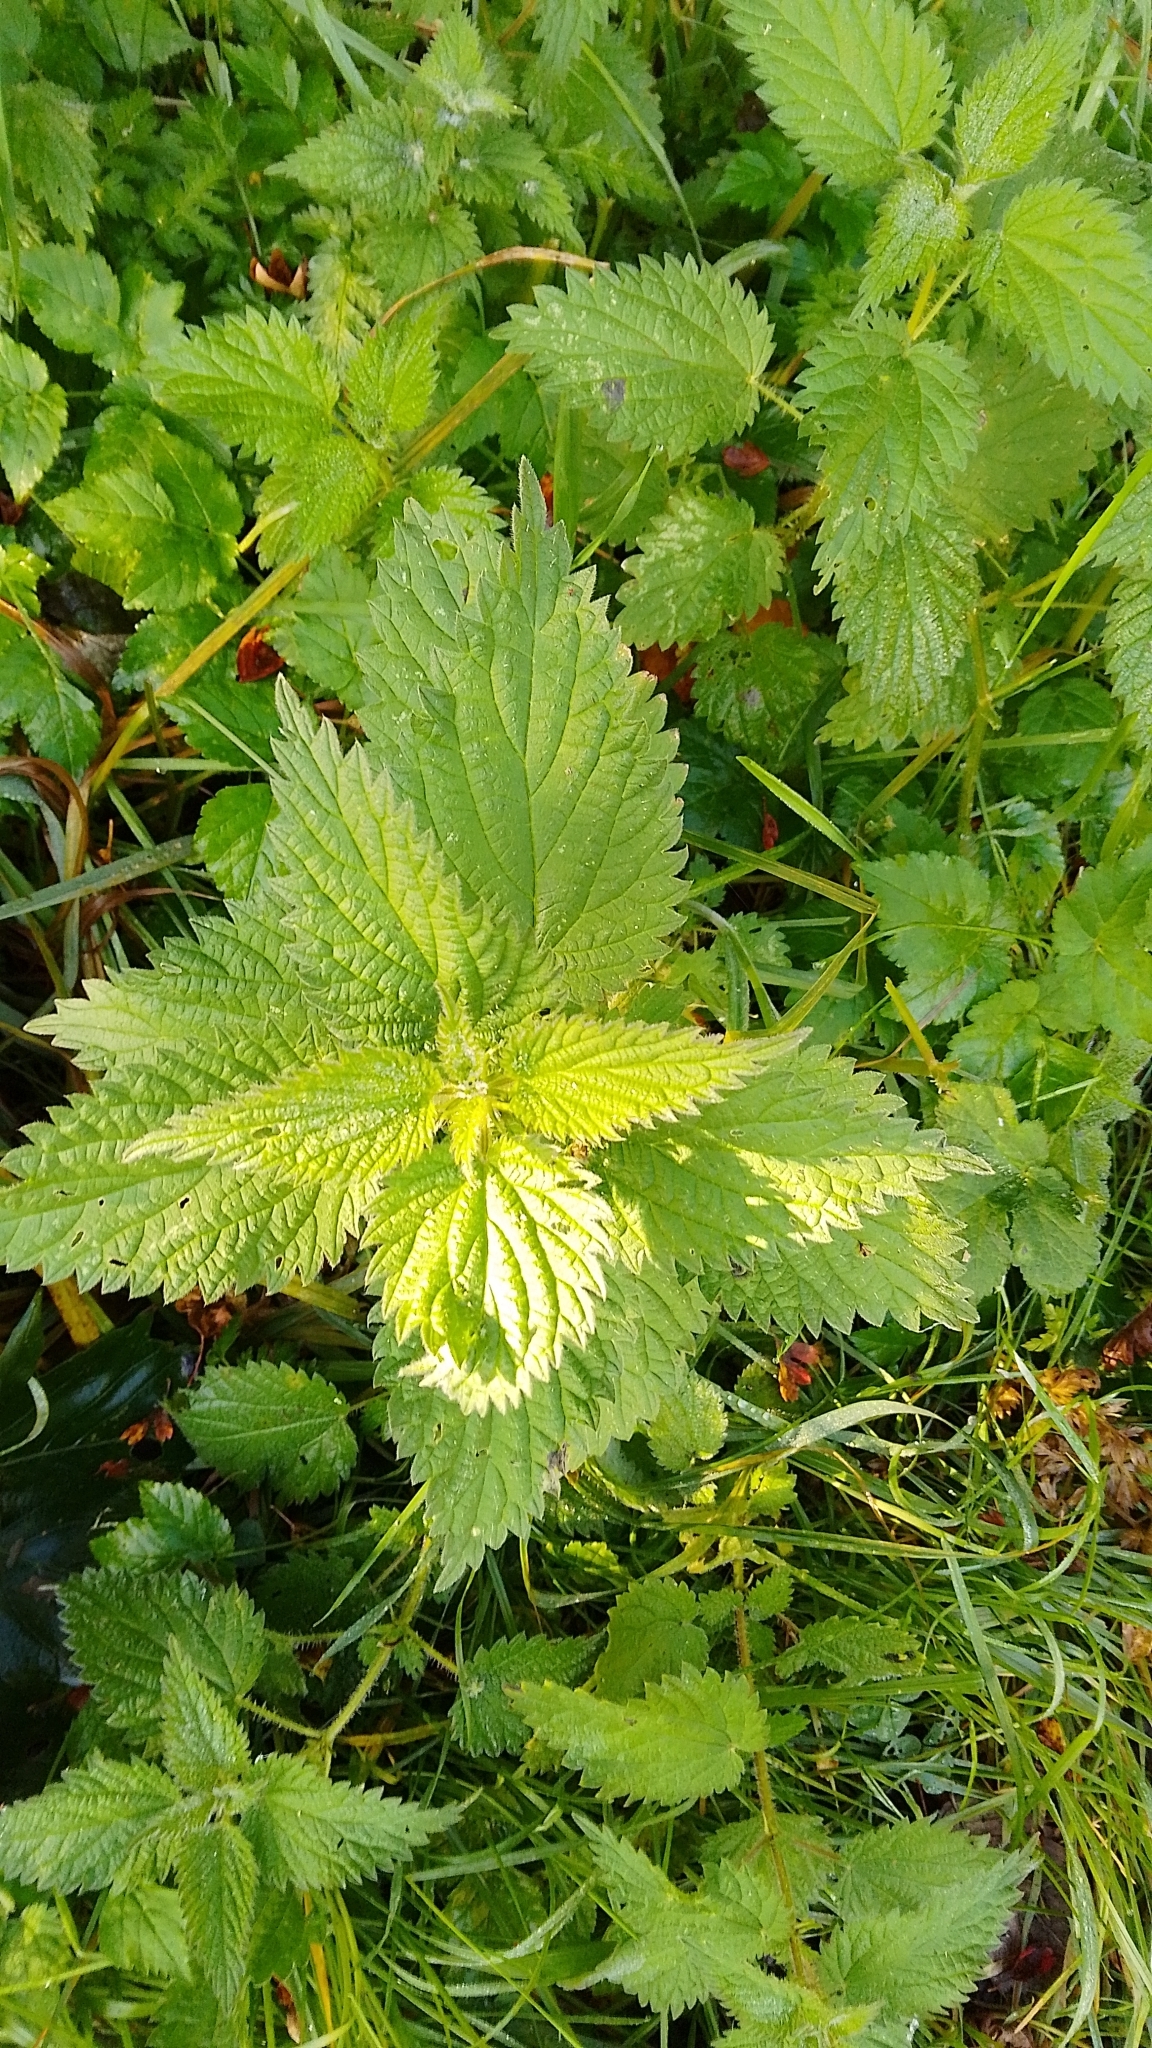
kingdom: Plantae
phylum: Tracheophyta
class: Magnoliopsida
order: Rosales
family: Urticaceae
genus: Urtica
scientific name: Urtica dioica
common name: Common nettle
